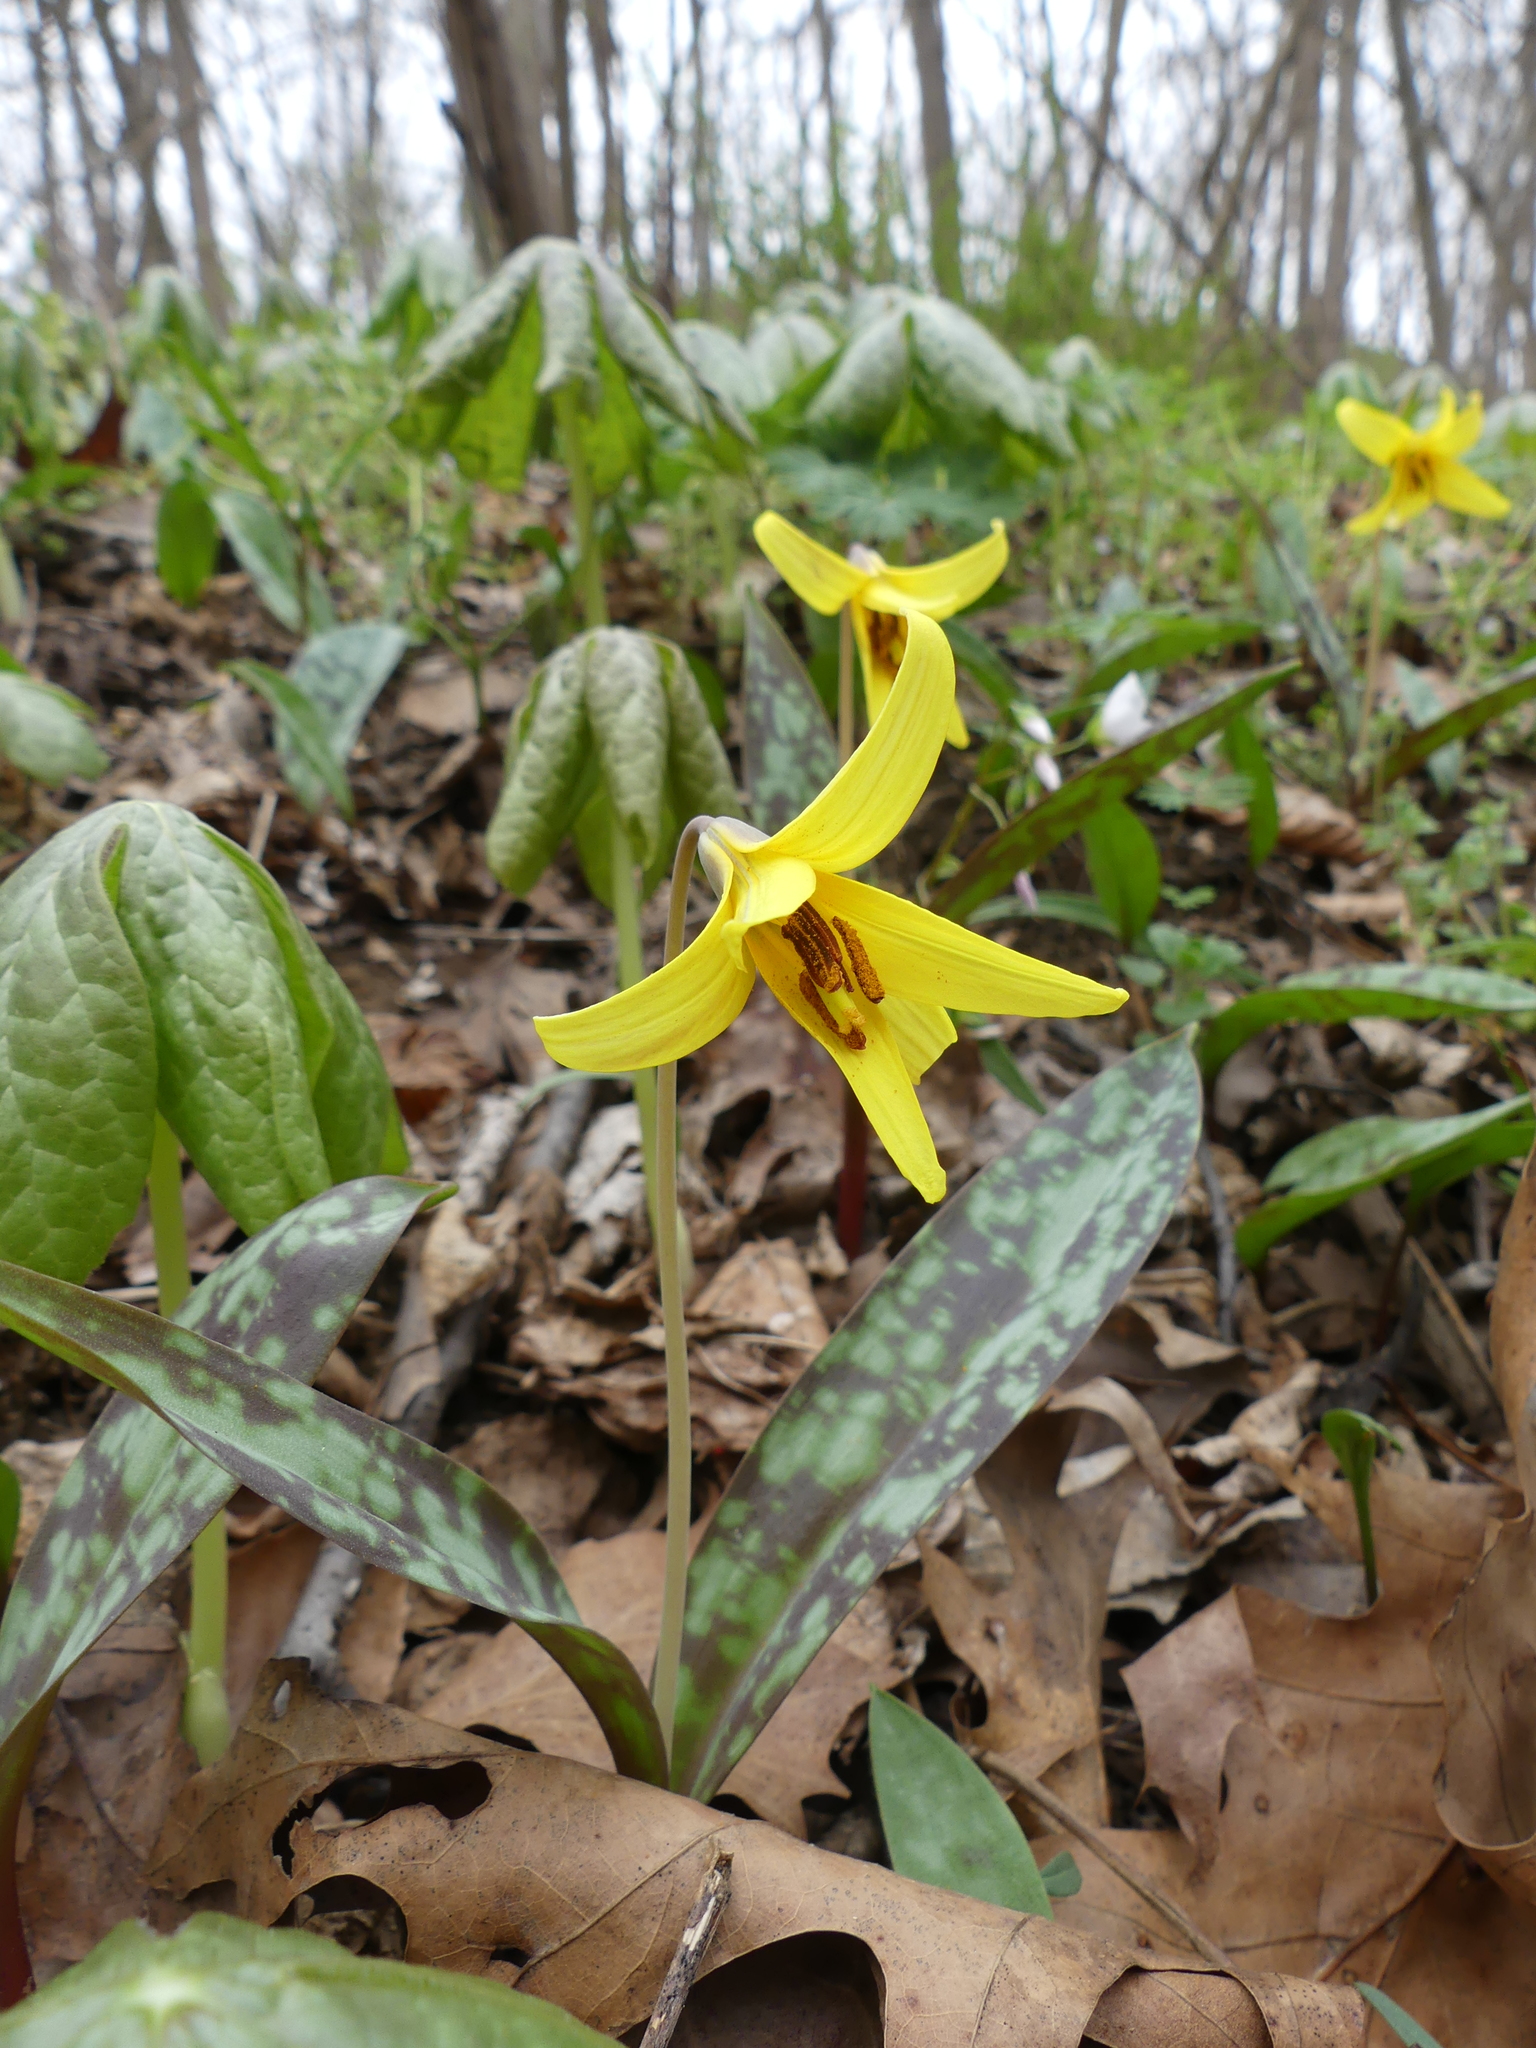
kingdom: Plantae
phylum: Tracheophyta
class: Liliopsida
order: Liliales
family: Liliaceae
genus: Erythronium
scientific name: Erythronium americanum
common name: Yellow adder's-tongue
